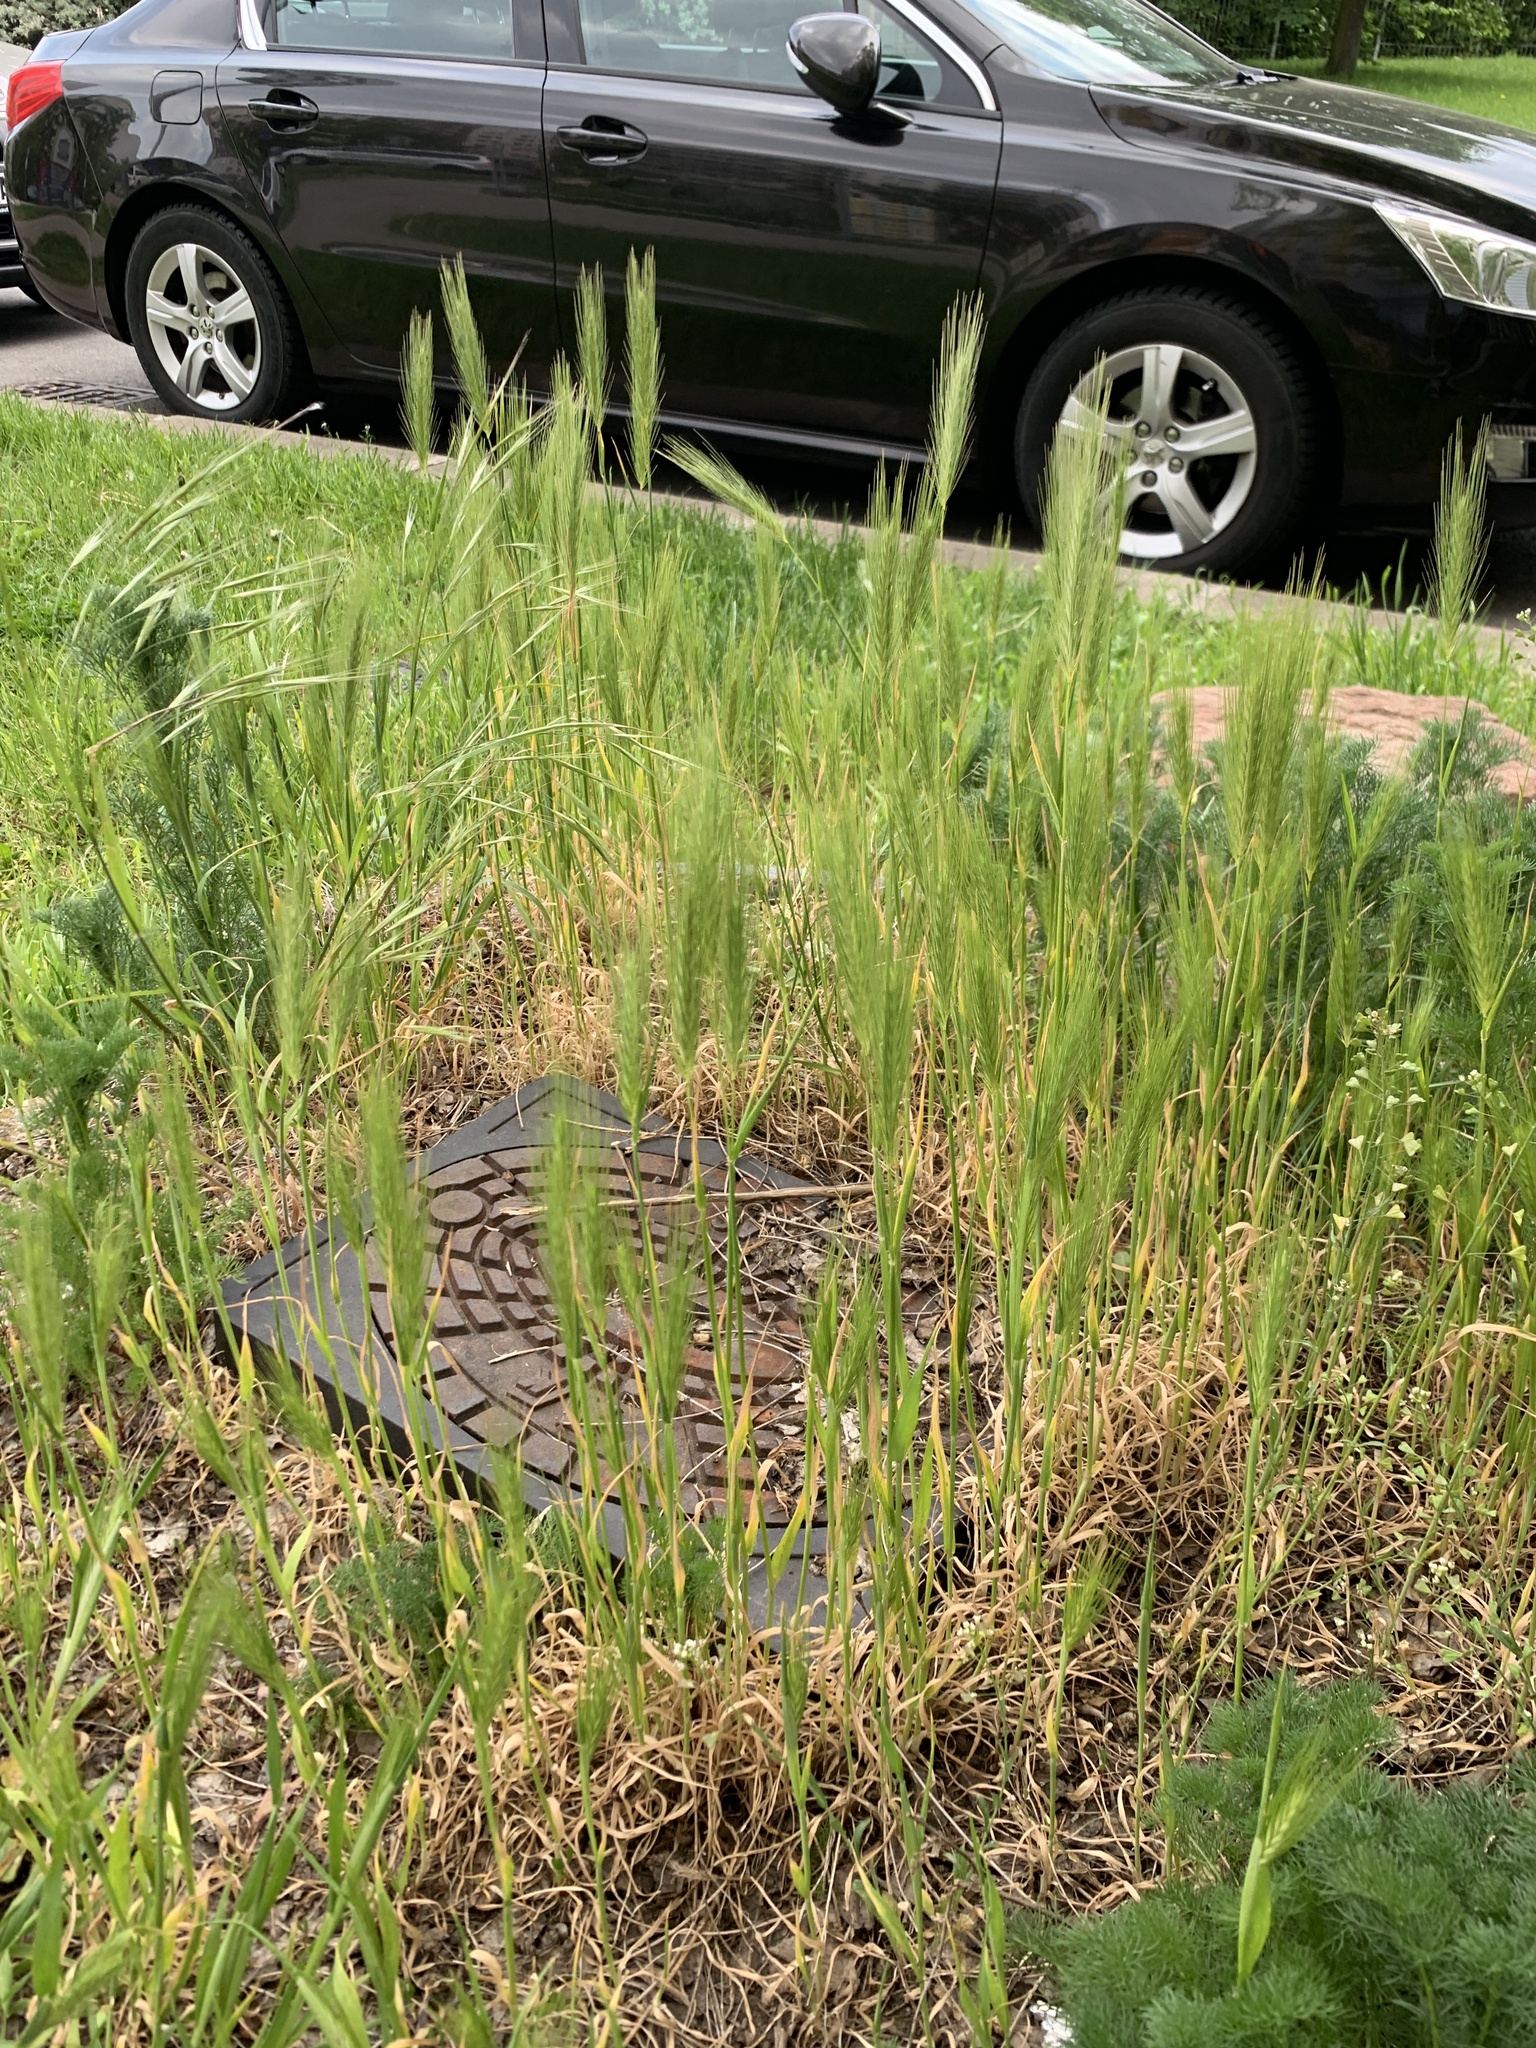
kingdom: Plantae
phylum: Tracheophyta
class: Liliopsida
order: Poales
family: Poaceae
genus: Hordeum
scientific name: Hordeum murinum
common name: Wall barley
